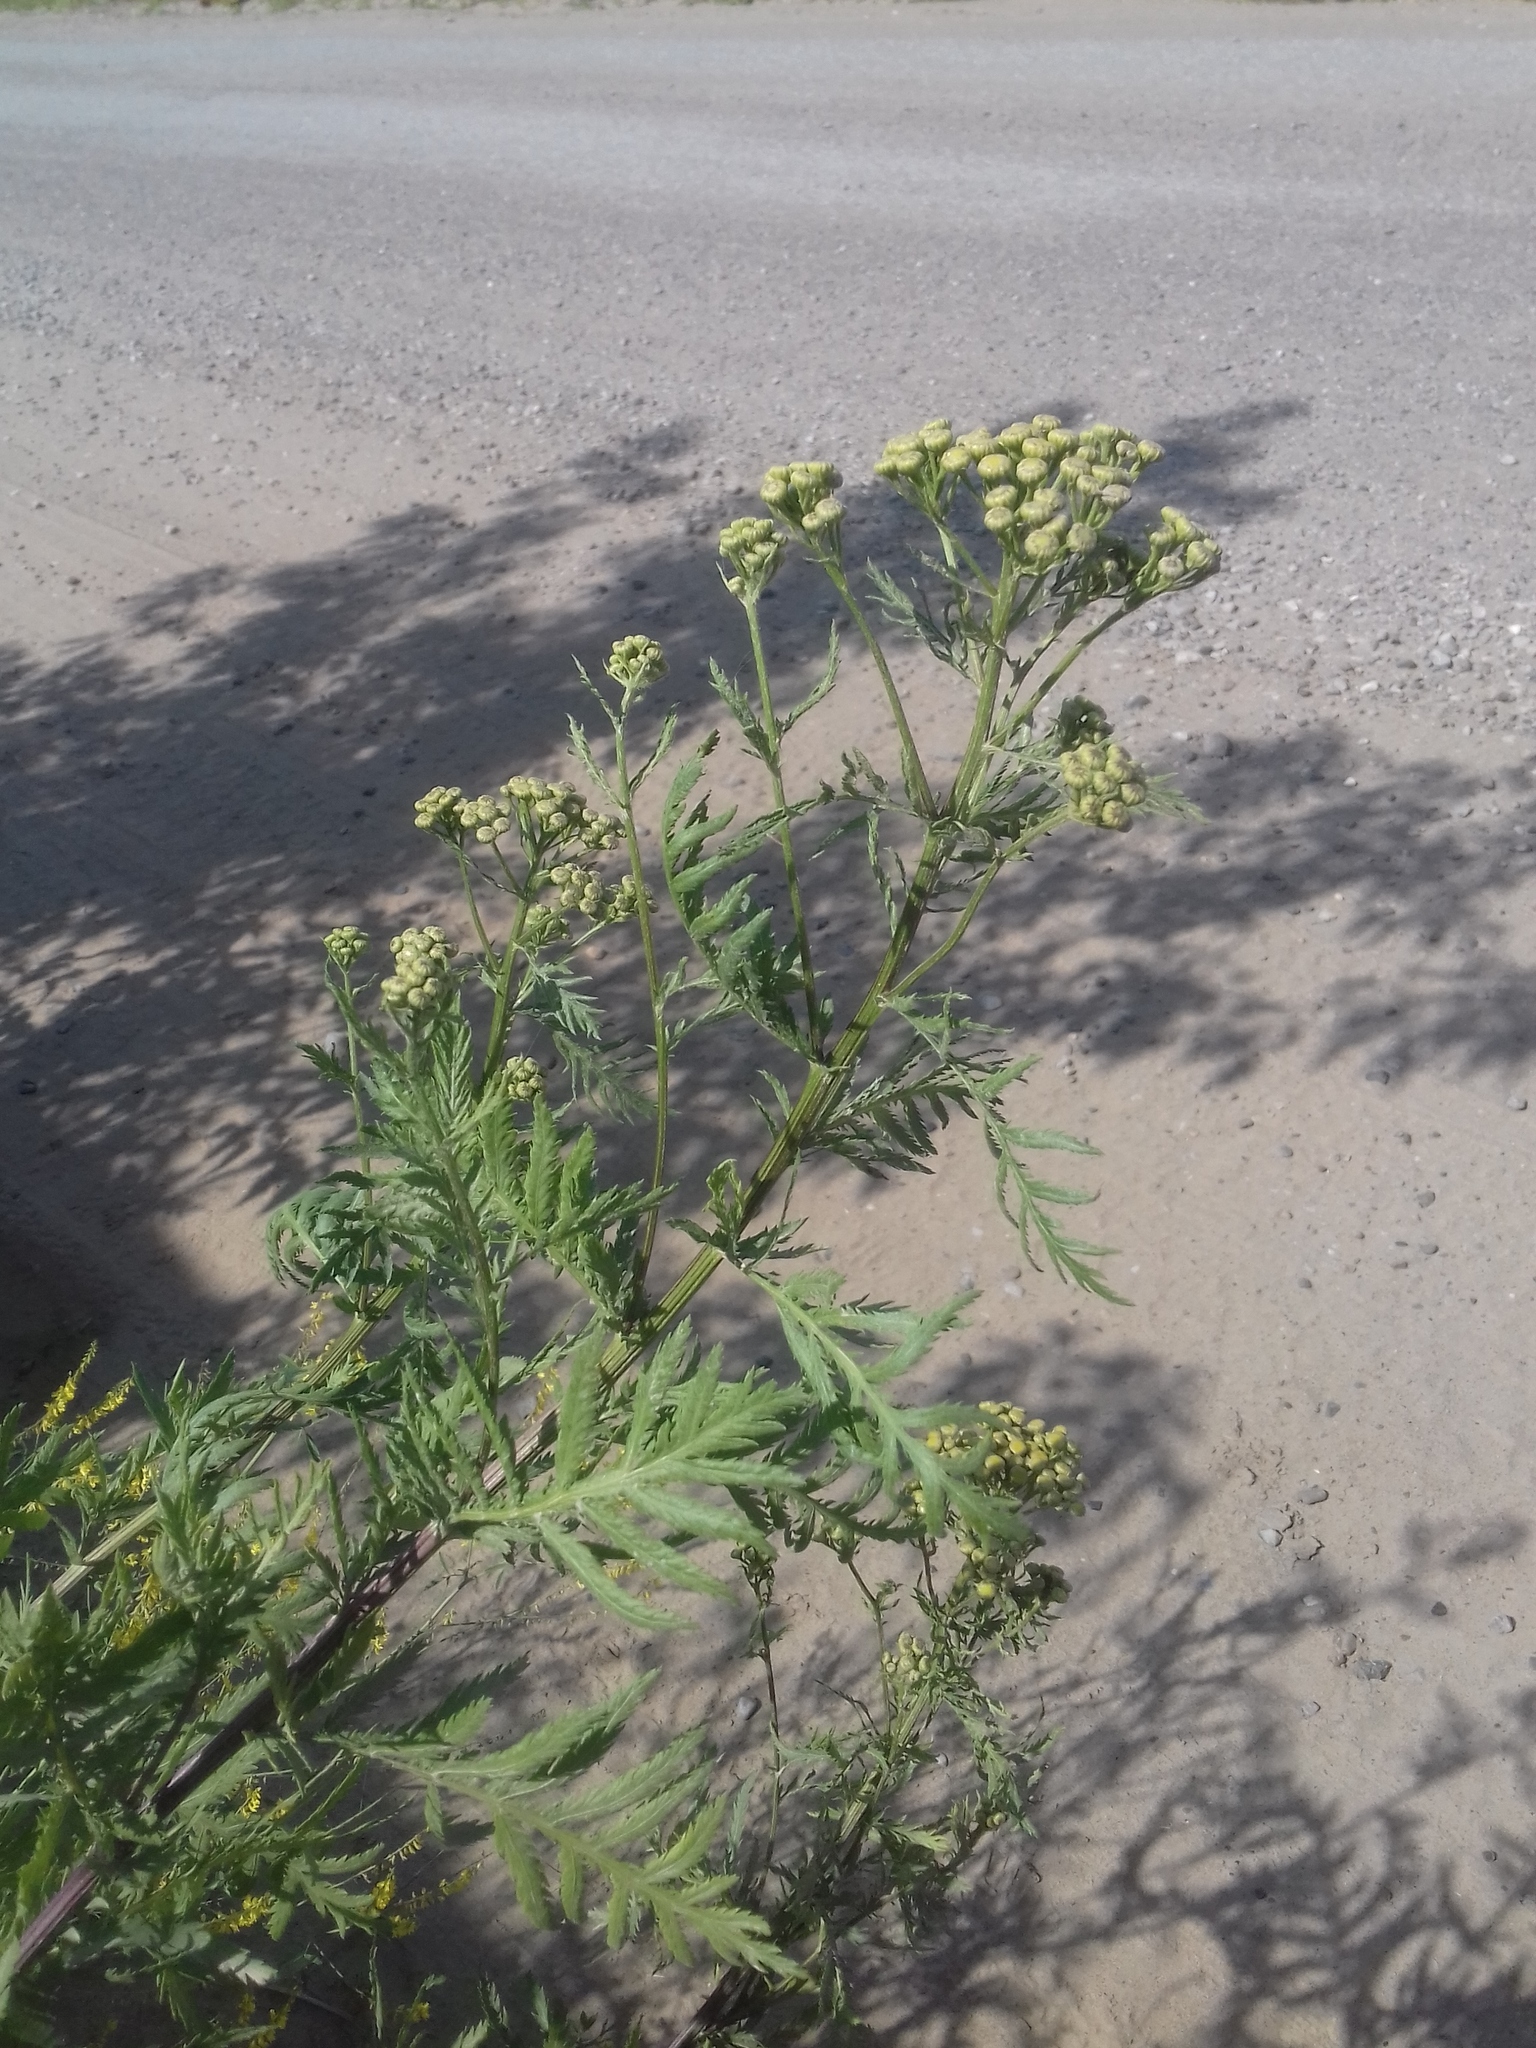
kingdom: Plantae
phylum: Tracheophyta
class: Magnoliopsida
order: Asterales
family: Asteraceae
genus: Tanacetum
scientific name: Tanacetum vulgare
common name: Common tansy
